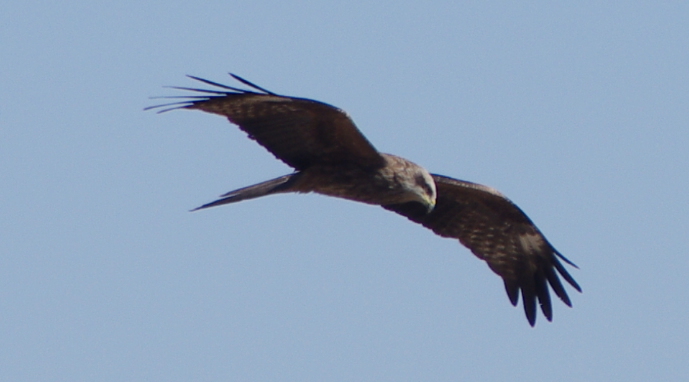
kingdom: Animalia
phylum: Chordata
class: Aves
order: Accipitriformes
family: Accipitridae
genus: Milvus
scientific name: Milvus migrans
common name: Black kite
